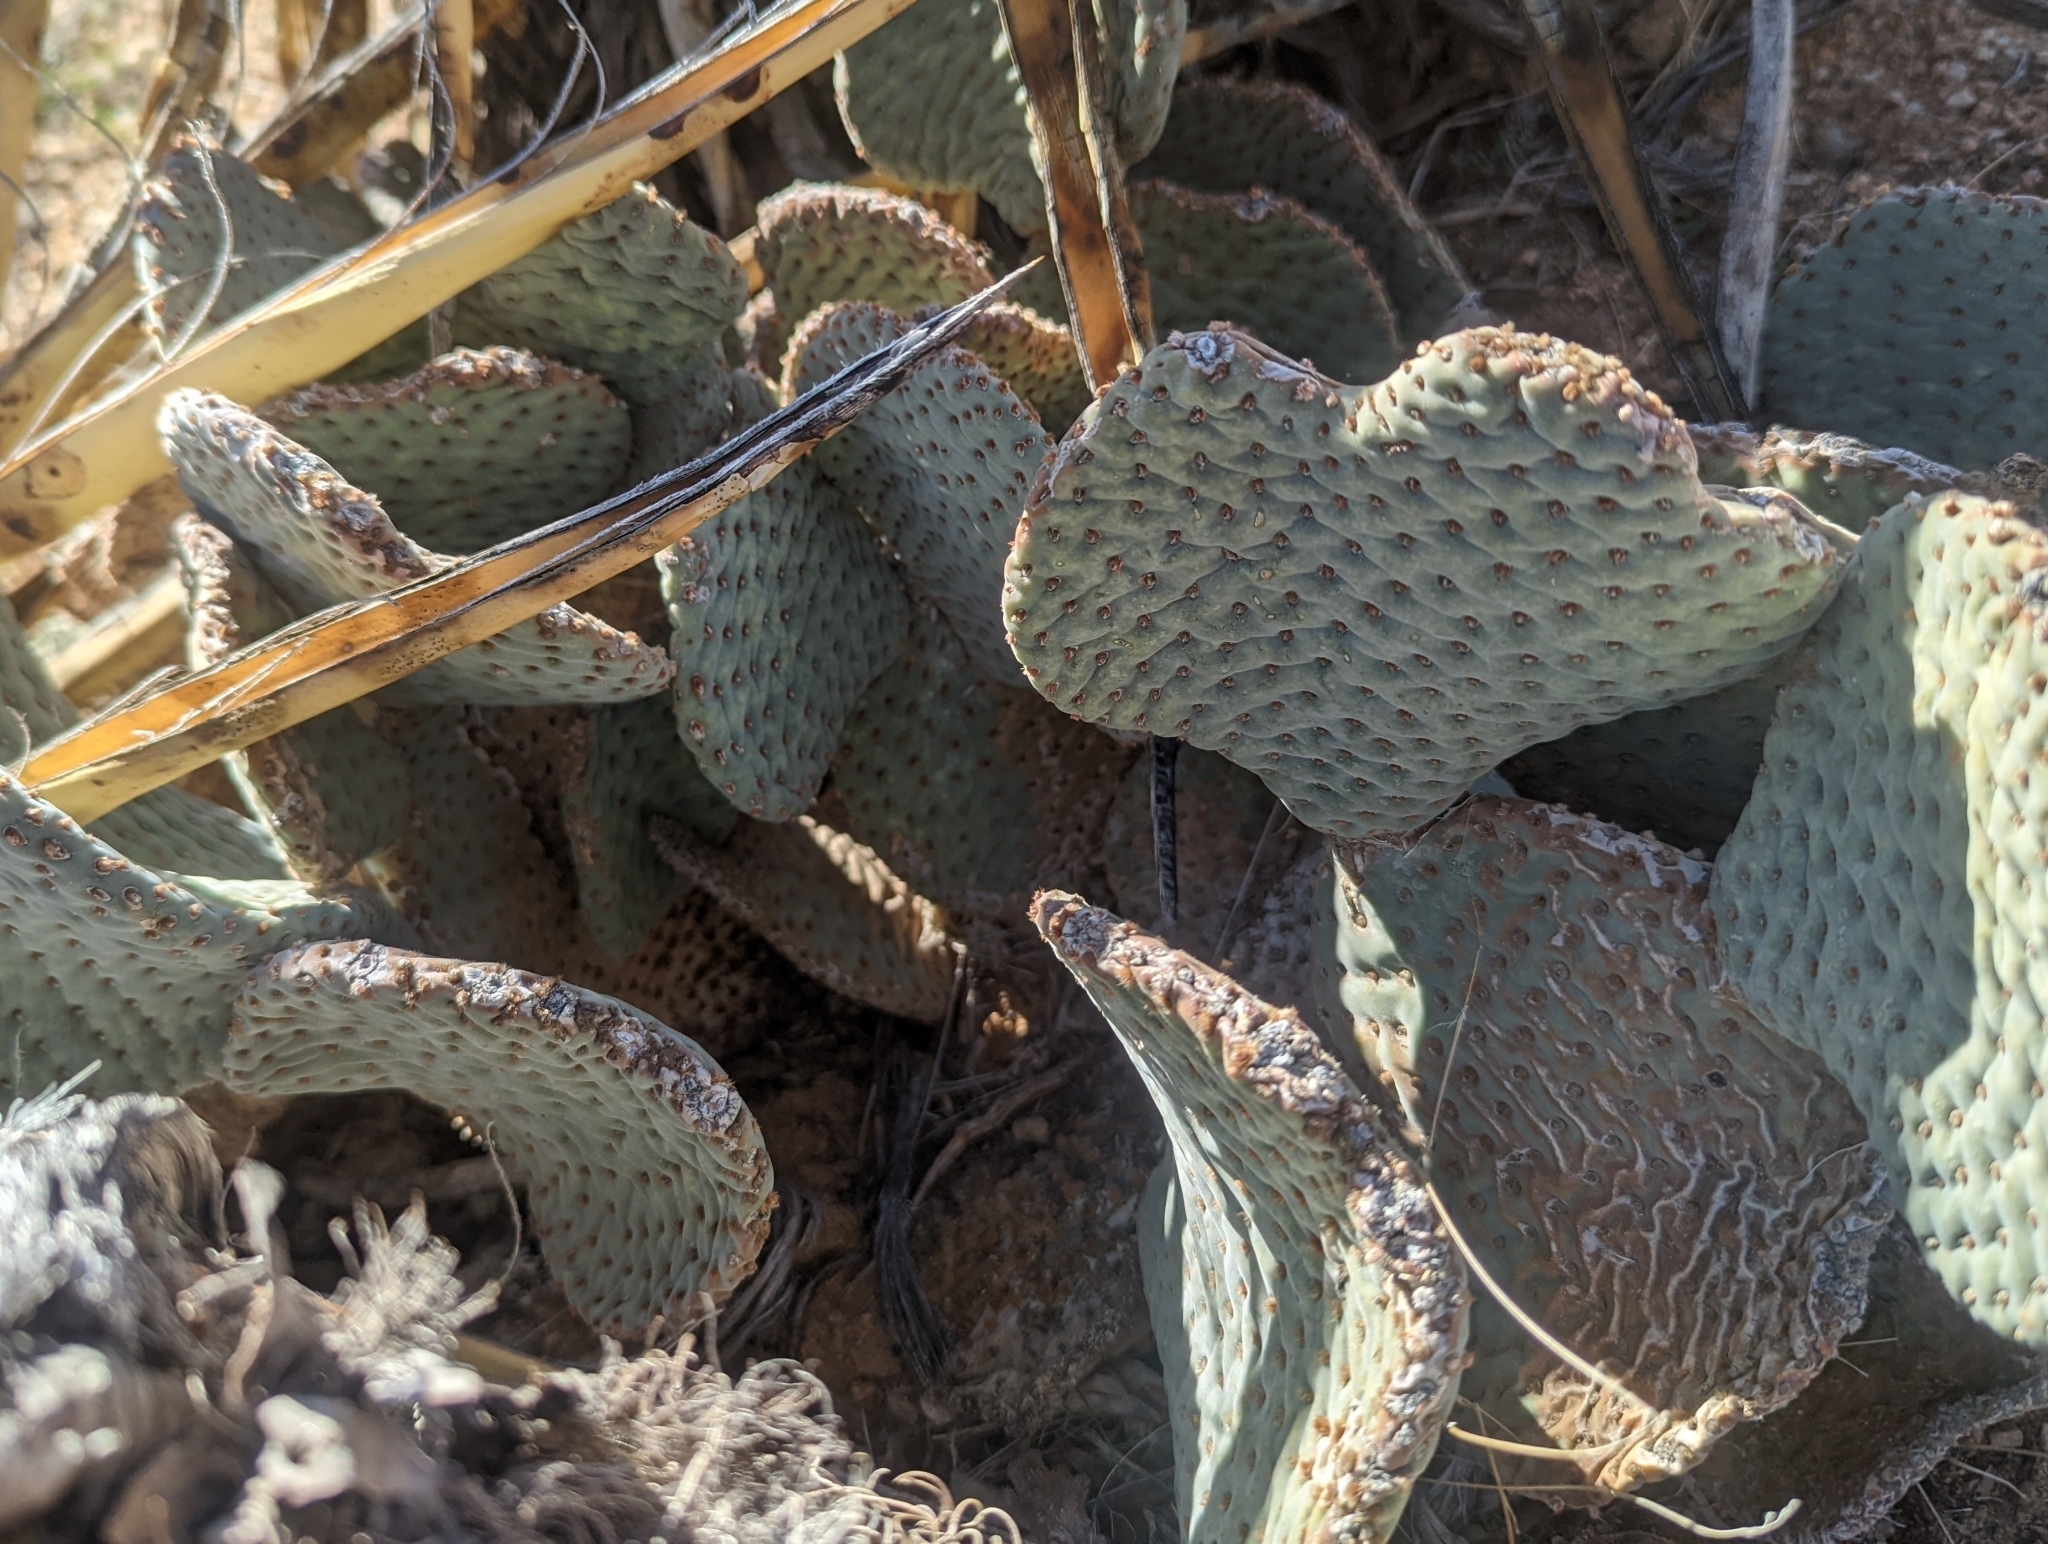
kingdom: Plantae
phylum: Tracheophyta
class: Magnoliopsida
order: Caryophyllales
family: Cactaceae
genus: Opuntia
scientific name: Opuntia basilaris
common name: Beavertail prickly-pear
